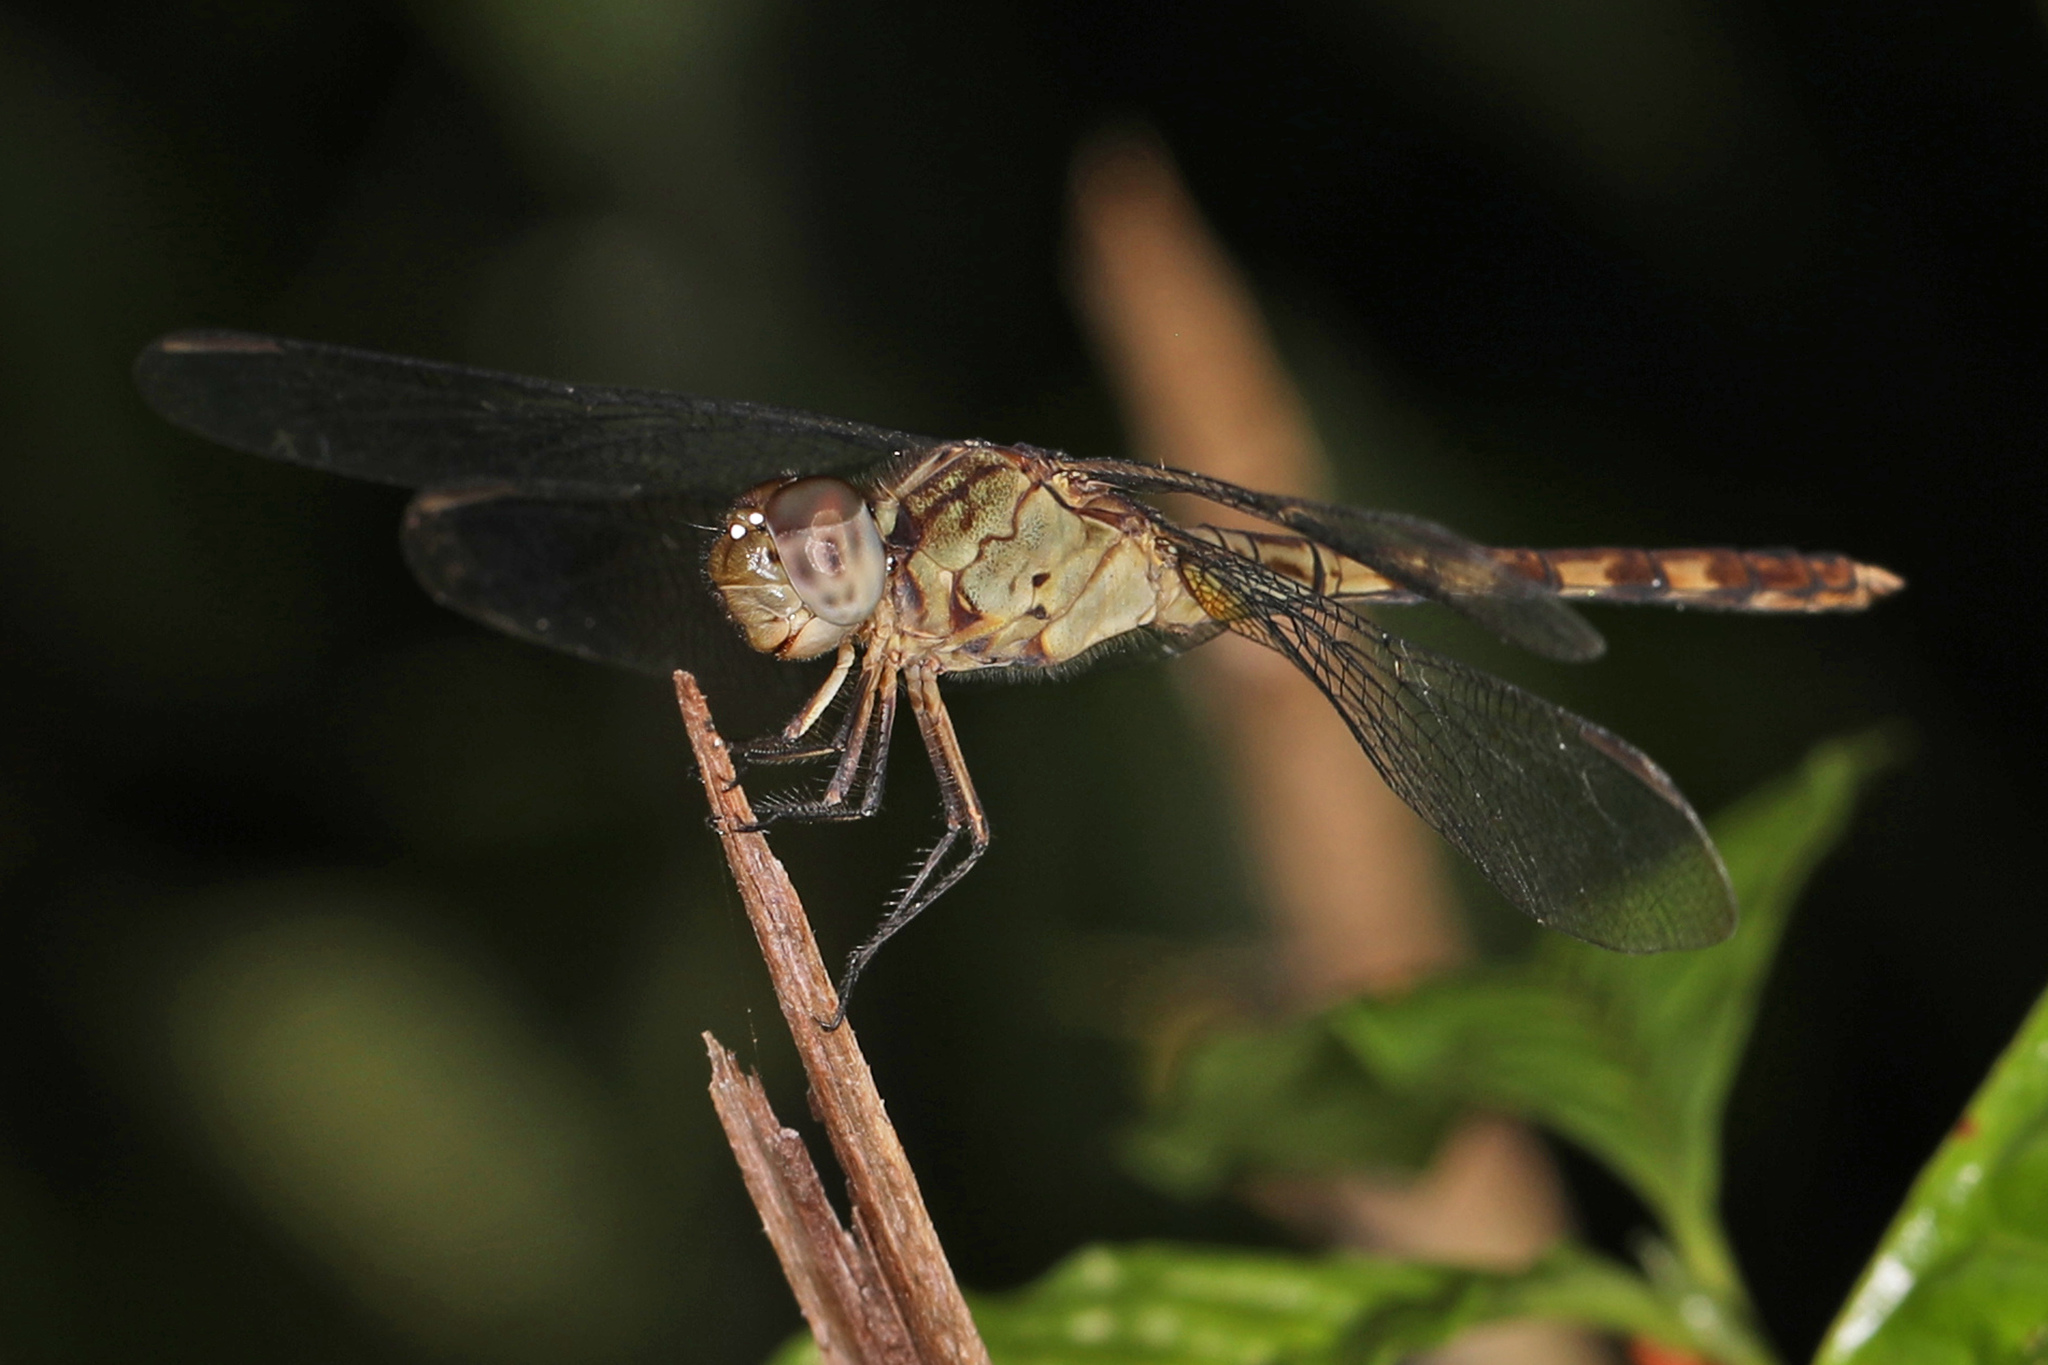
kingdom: Animalia
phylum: Arthropoda
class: Insecta
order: Odonata
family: Libellulidae
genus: Erythrodiplax
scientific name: Erythrodiplax umbrata
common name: Band-winged dragonlet
